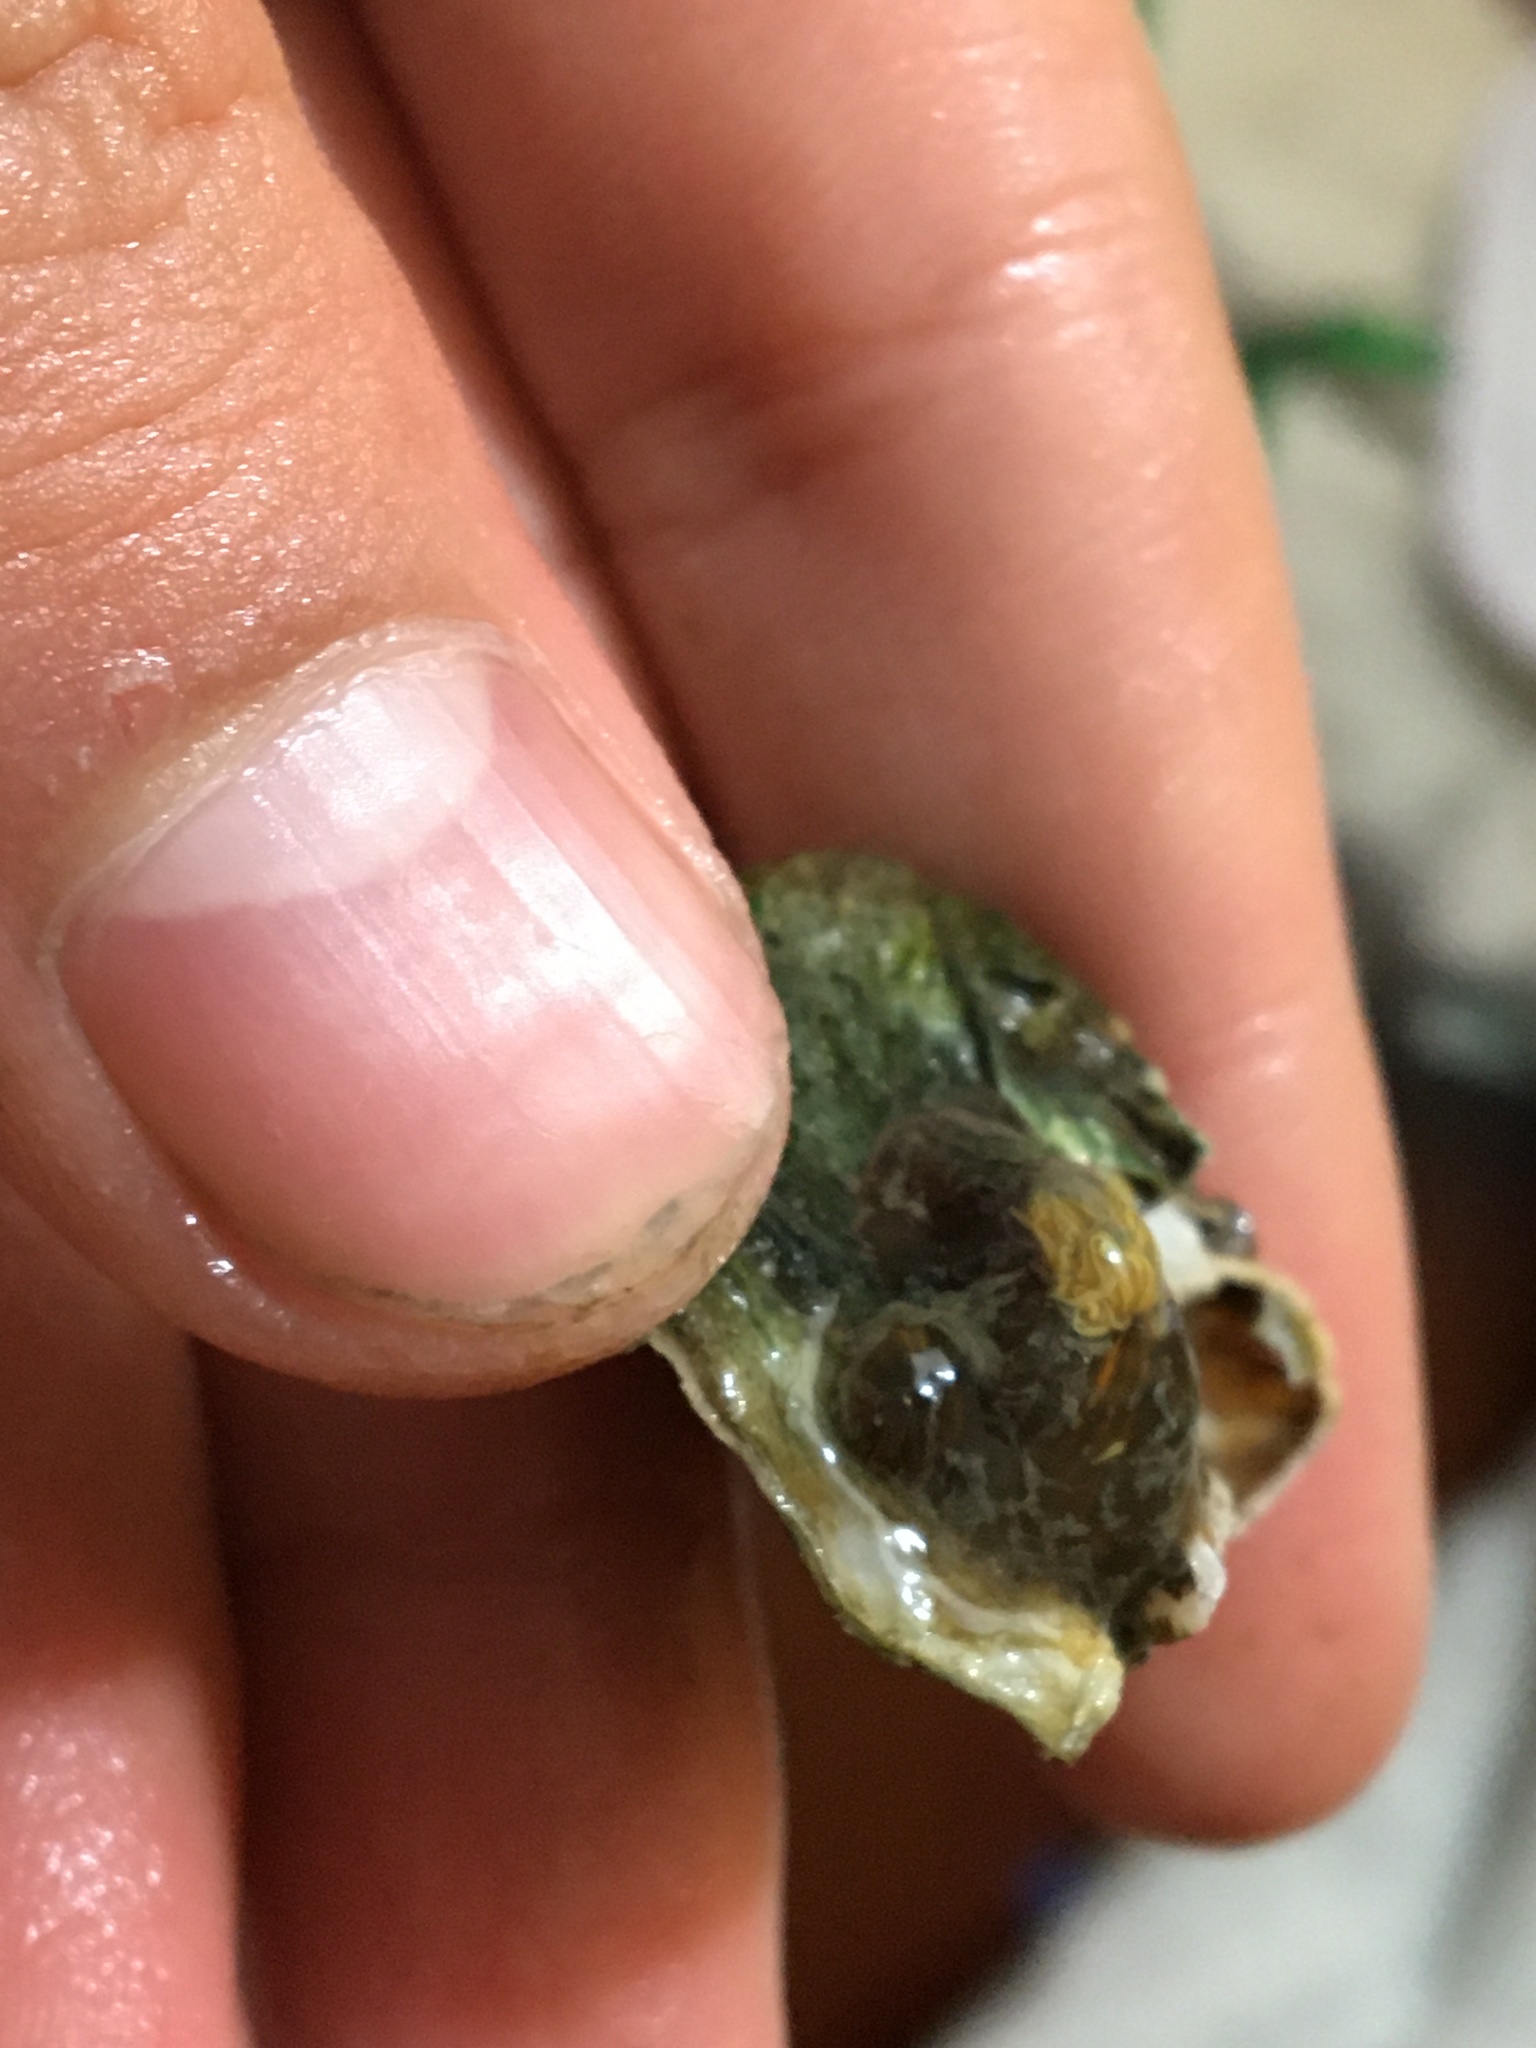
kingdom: Animalia
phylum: Cnidaria
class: Anthozoa
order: Actiniaria
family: Diadumenidae
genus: Diadumene
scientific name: Diadumene lineata
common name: Orange-striped anemone
